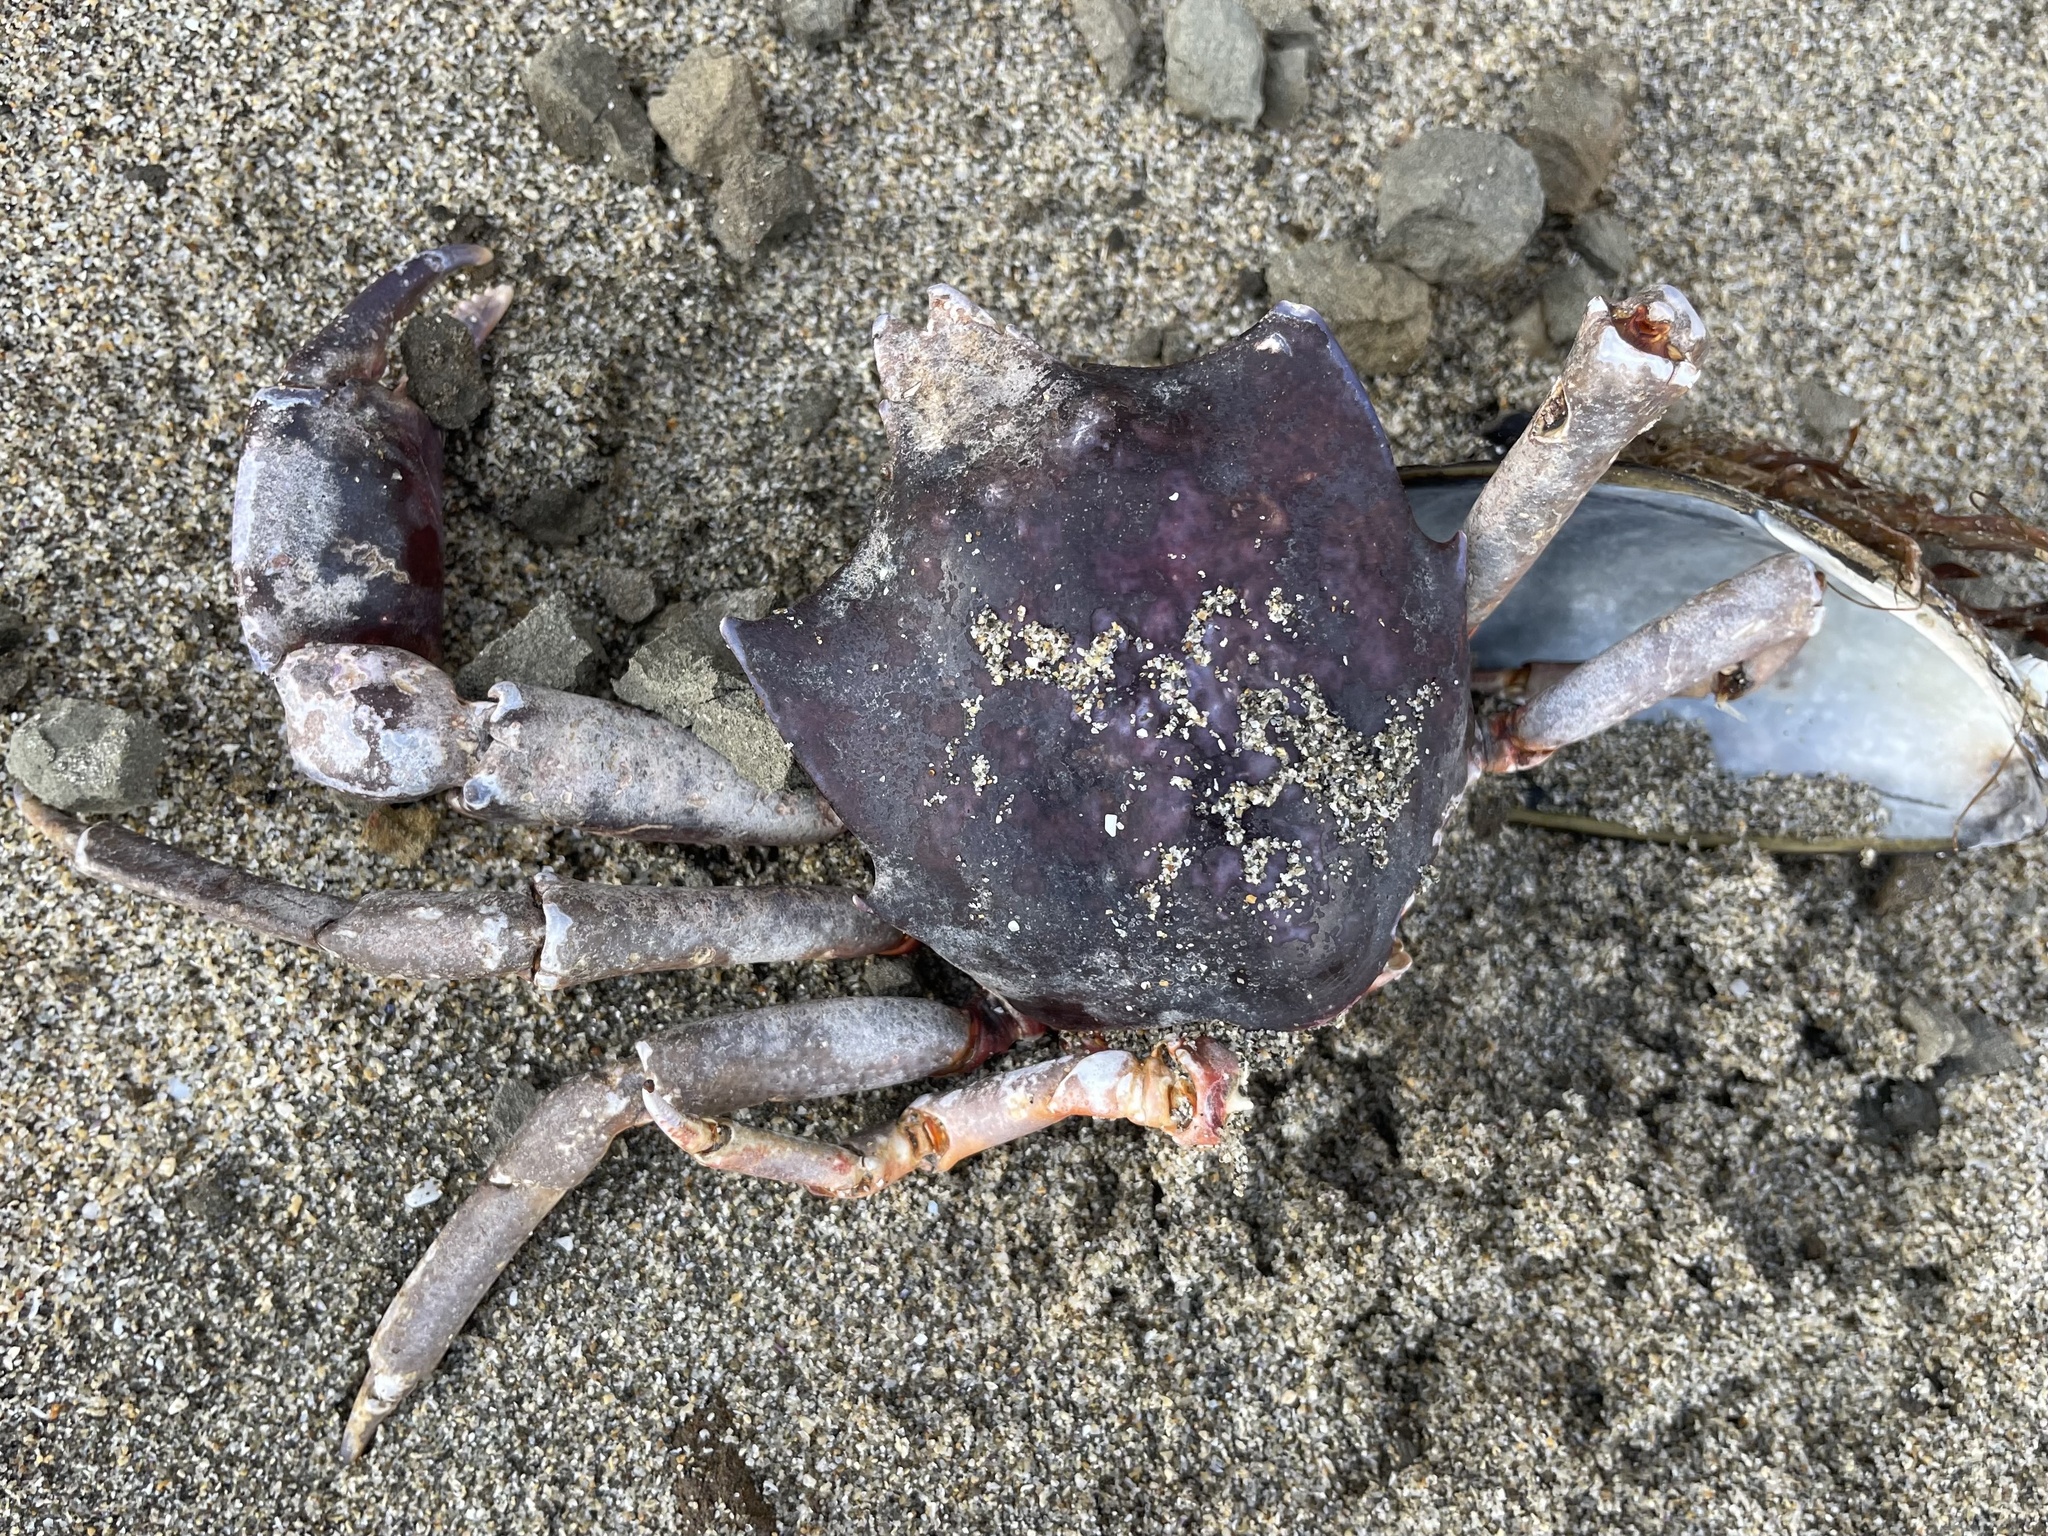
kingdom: Animalia
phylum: Arthropoda
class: Malacostraca
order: Decapoda
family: Epialtidae
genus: Pugettia
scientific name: Pugettia producta
